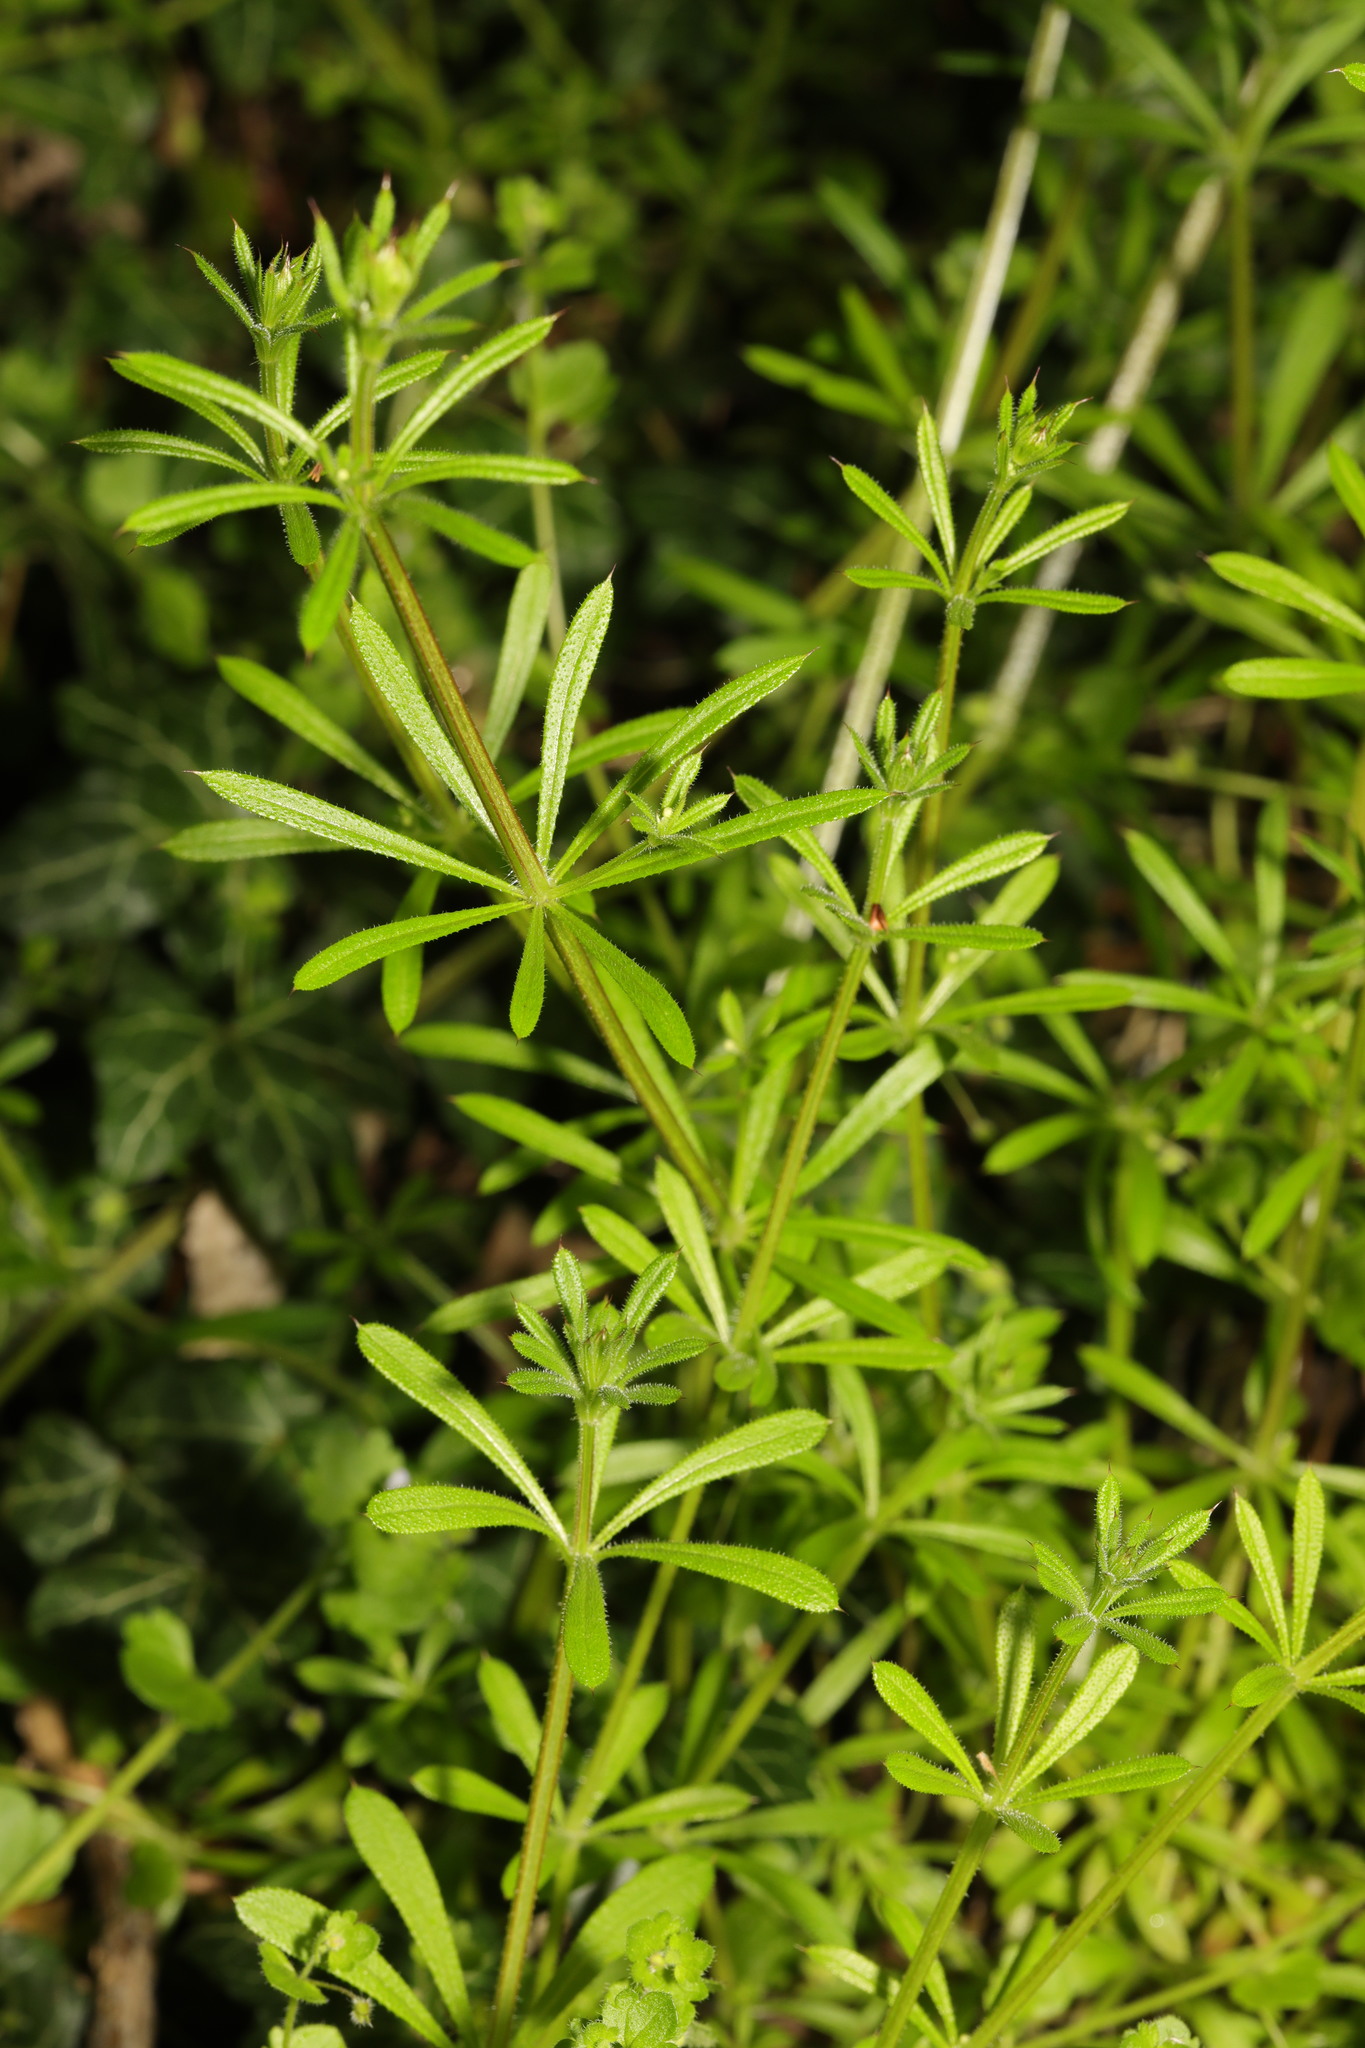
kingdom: Plantae
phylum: Tracheophyta
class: Magnoliopsida
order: Gentianales
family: Rubiaceae
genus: Galium
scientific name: Galium aparine
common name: Cleavers
